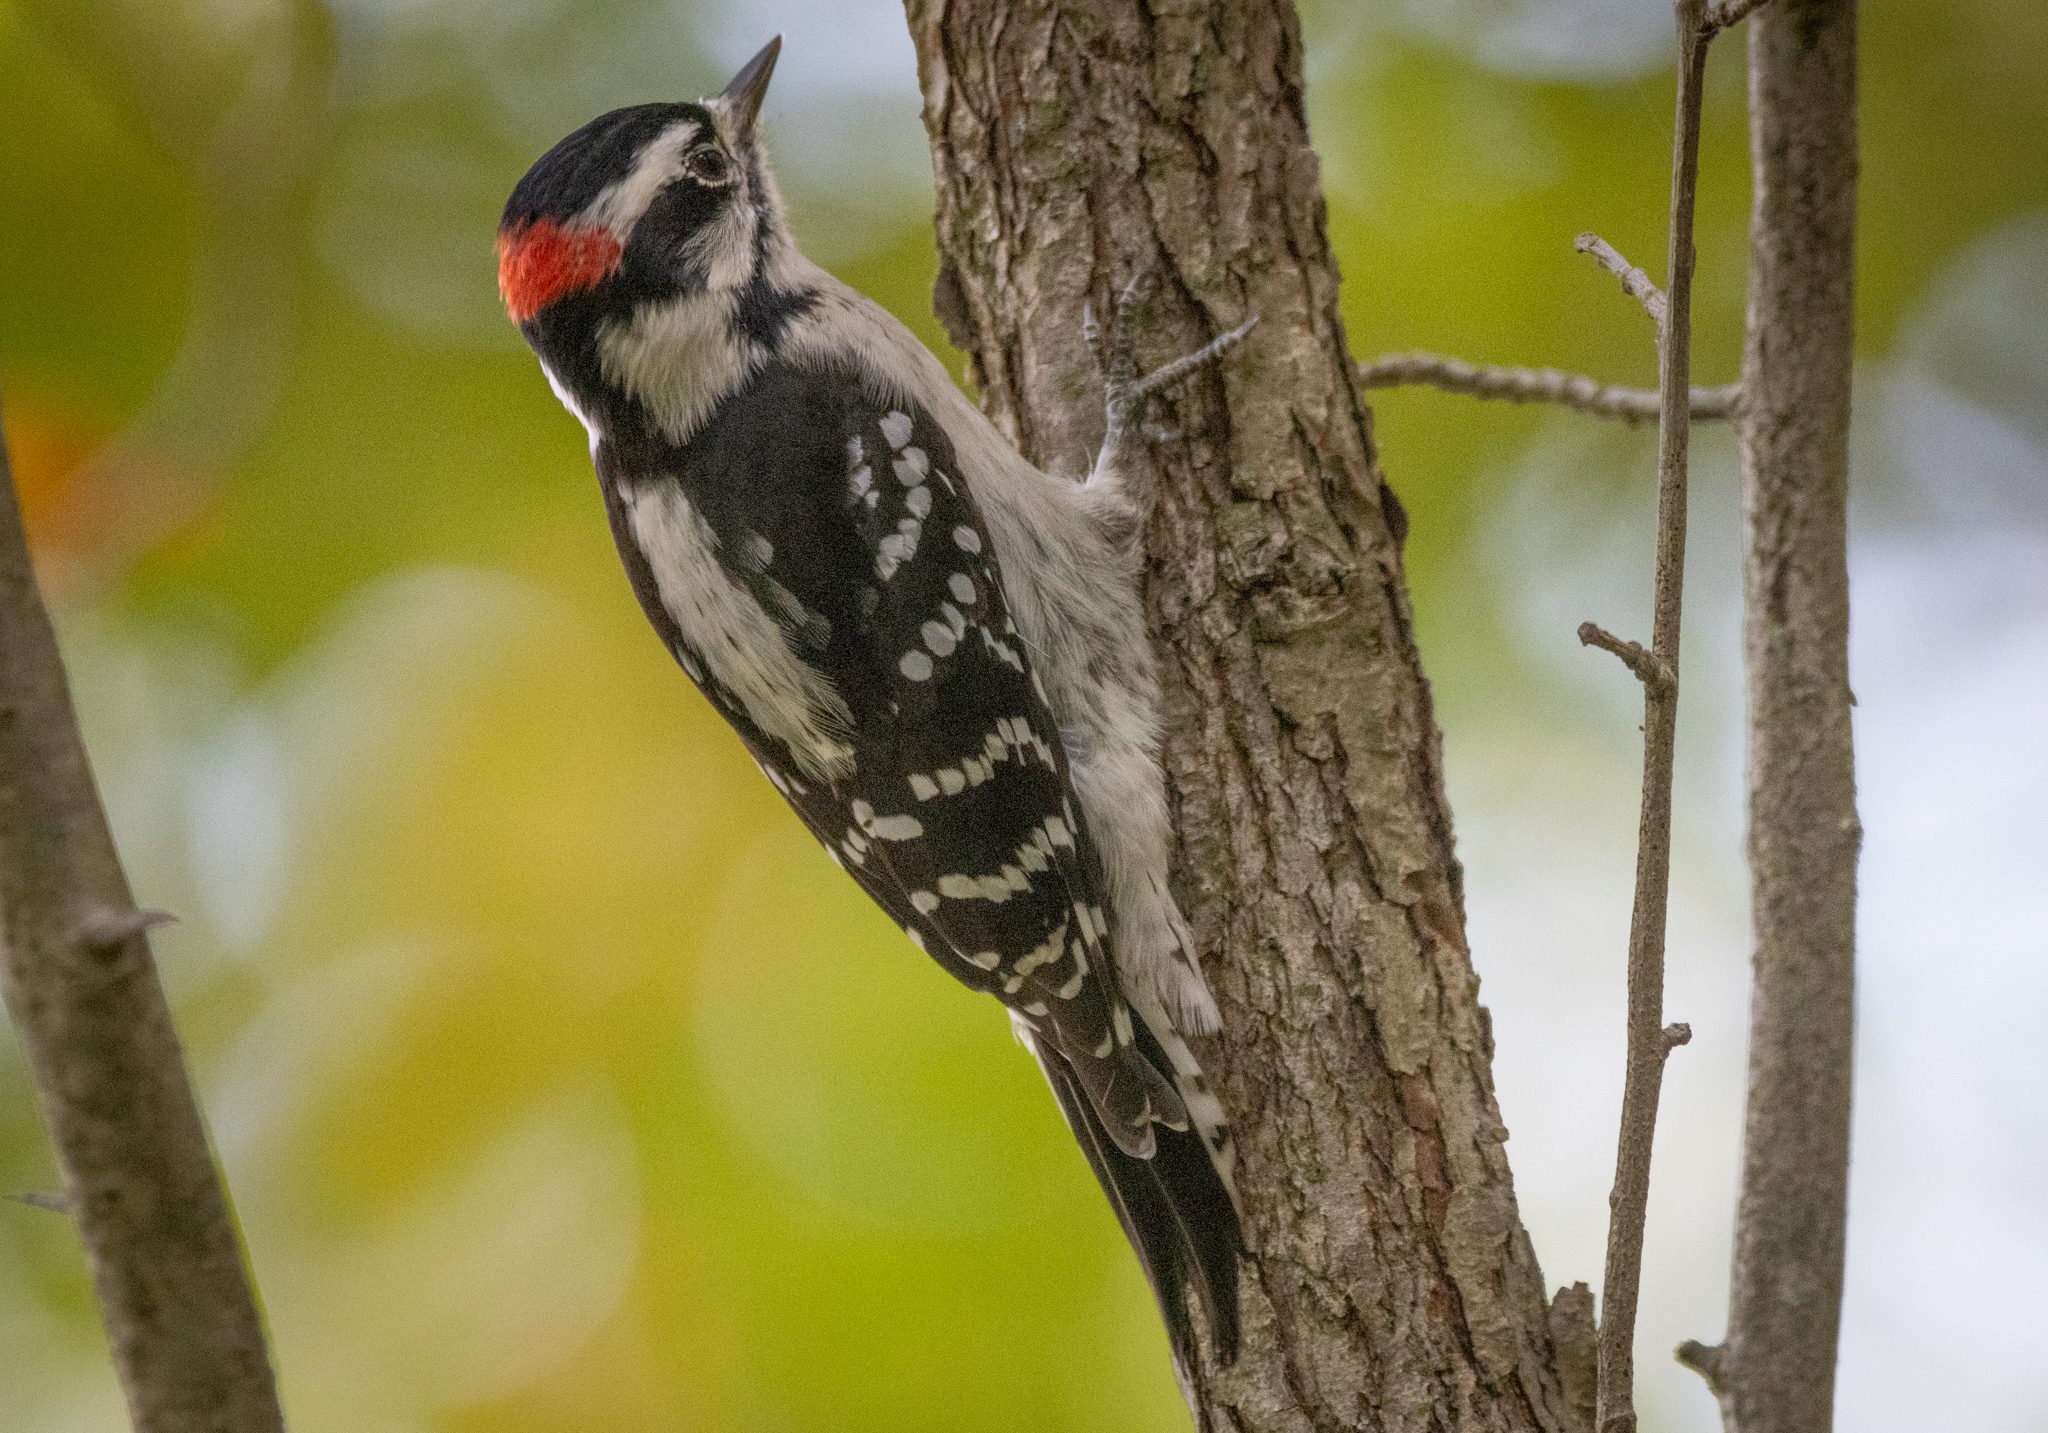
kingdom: Animalia
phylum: Chordata
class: Aves
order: Piciformes
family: Picidae
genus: Dryobates
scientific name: Dryobates pubescens
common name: Downy woodpecker
